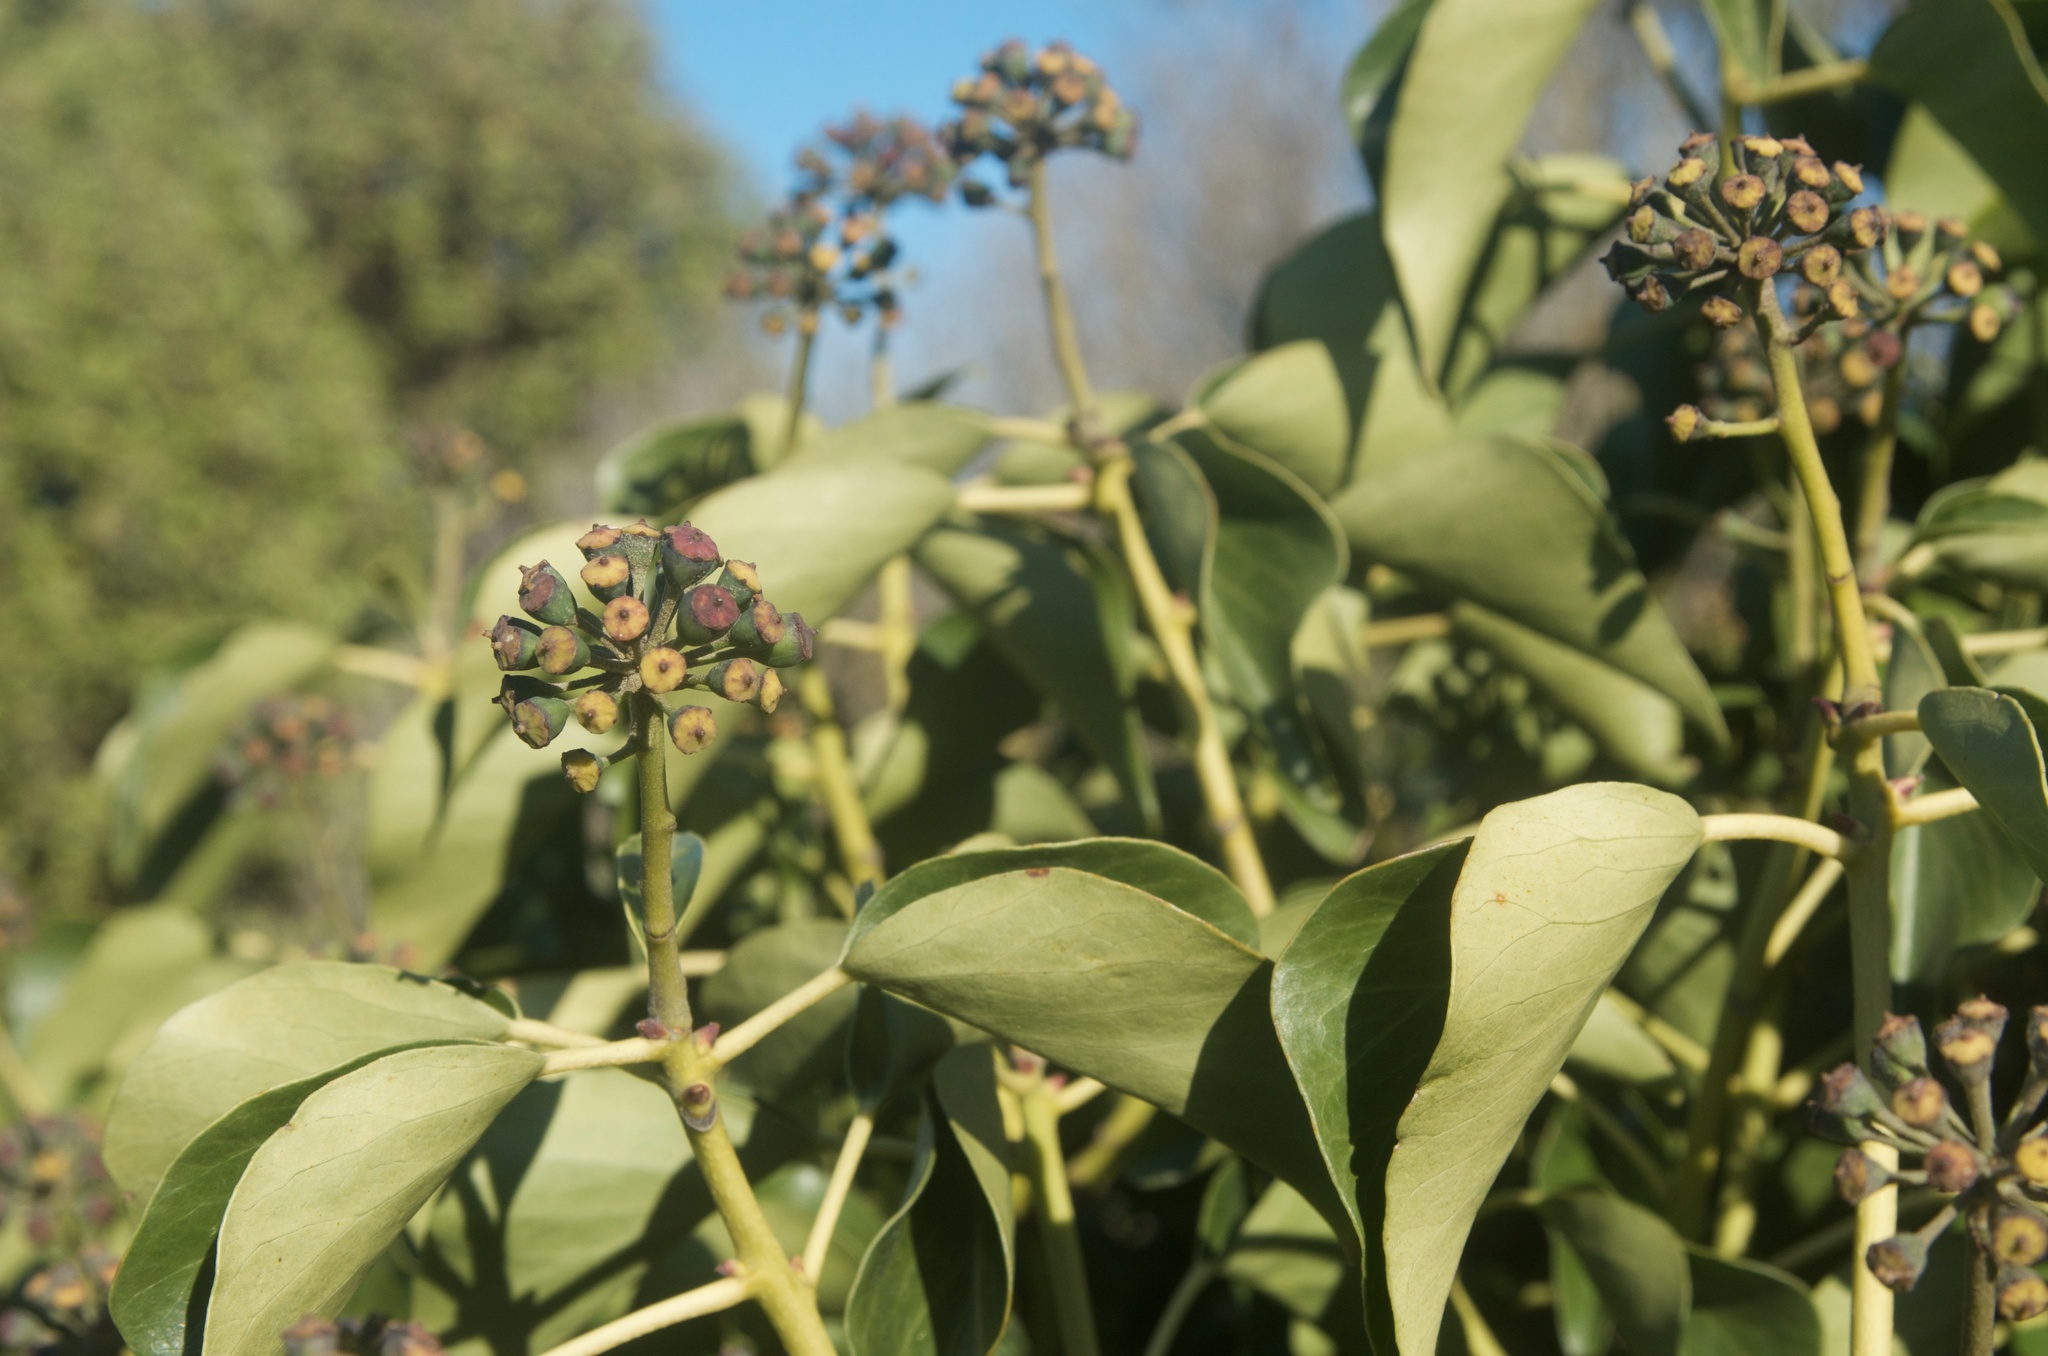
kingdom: Plantae
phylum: Tracheophyta
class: Magnoliopsida
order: Apiales
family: Araliaceae
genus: Hedera
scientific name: Hedera helix
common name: Ivy
